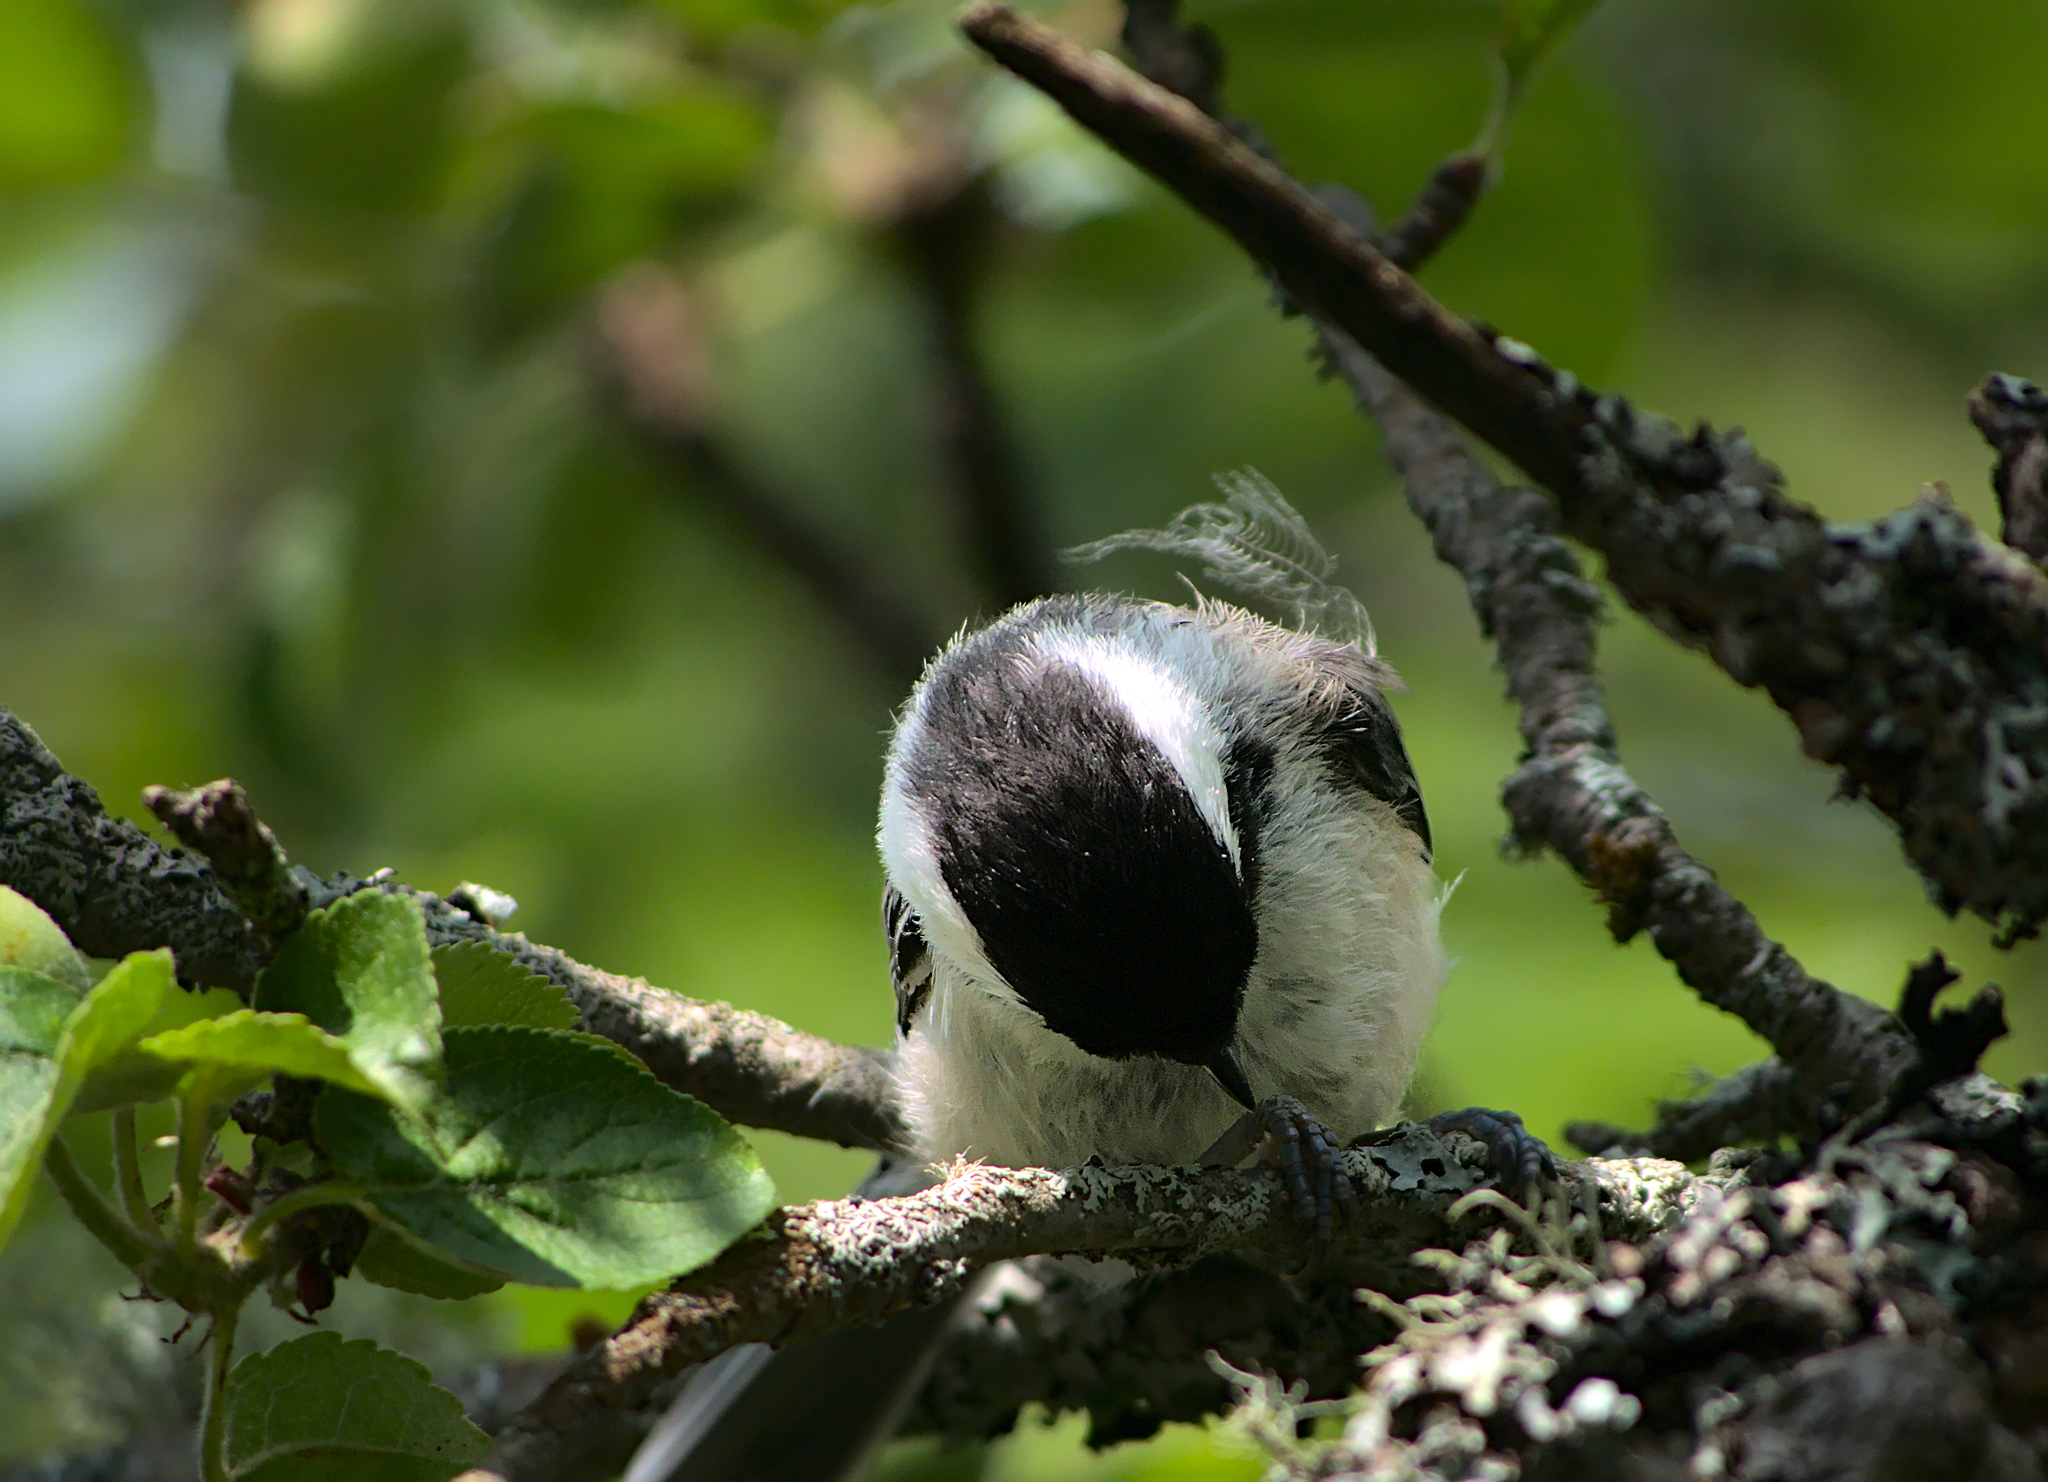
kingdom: Animalia
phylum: Chordata
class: Aves
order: Passeriformes
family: Paridae
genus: Poecile
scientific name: Poecile atricapillus
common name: Black-capped chickadee
